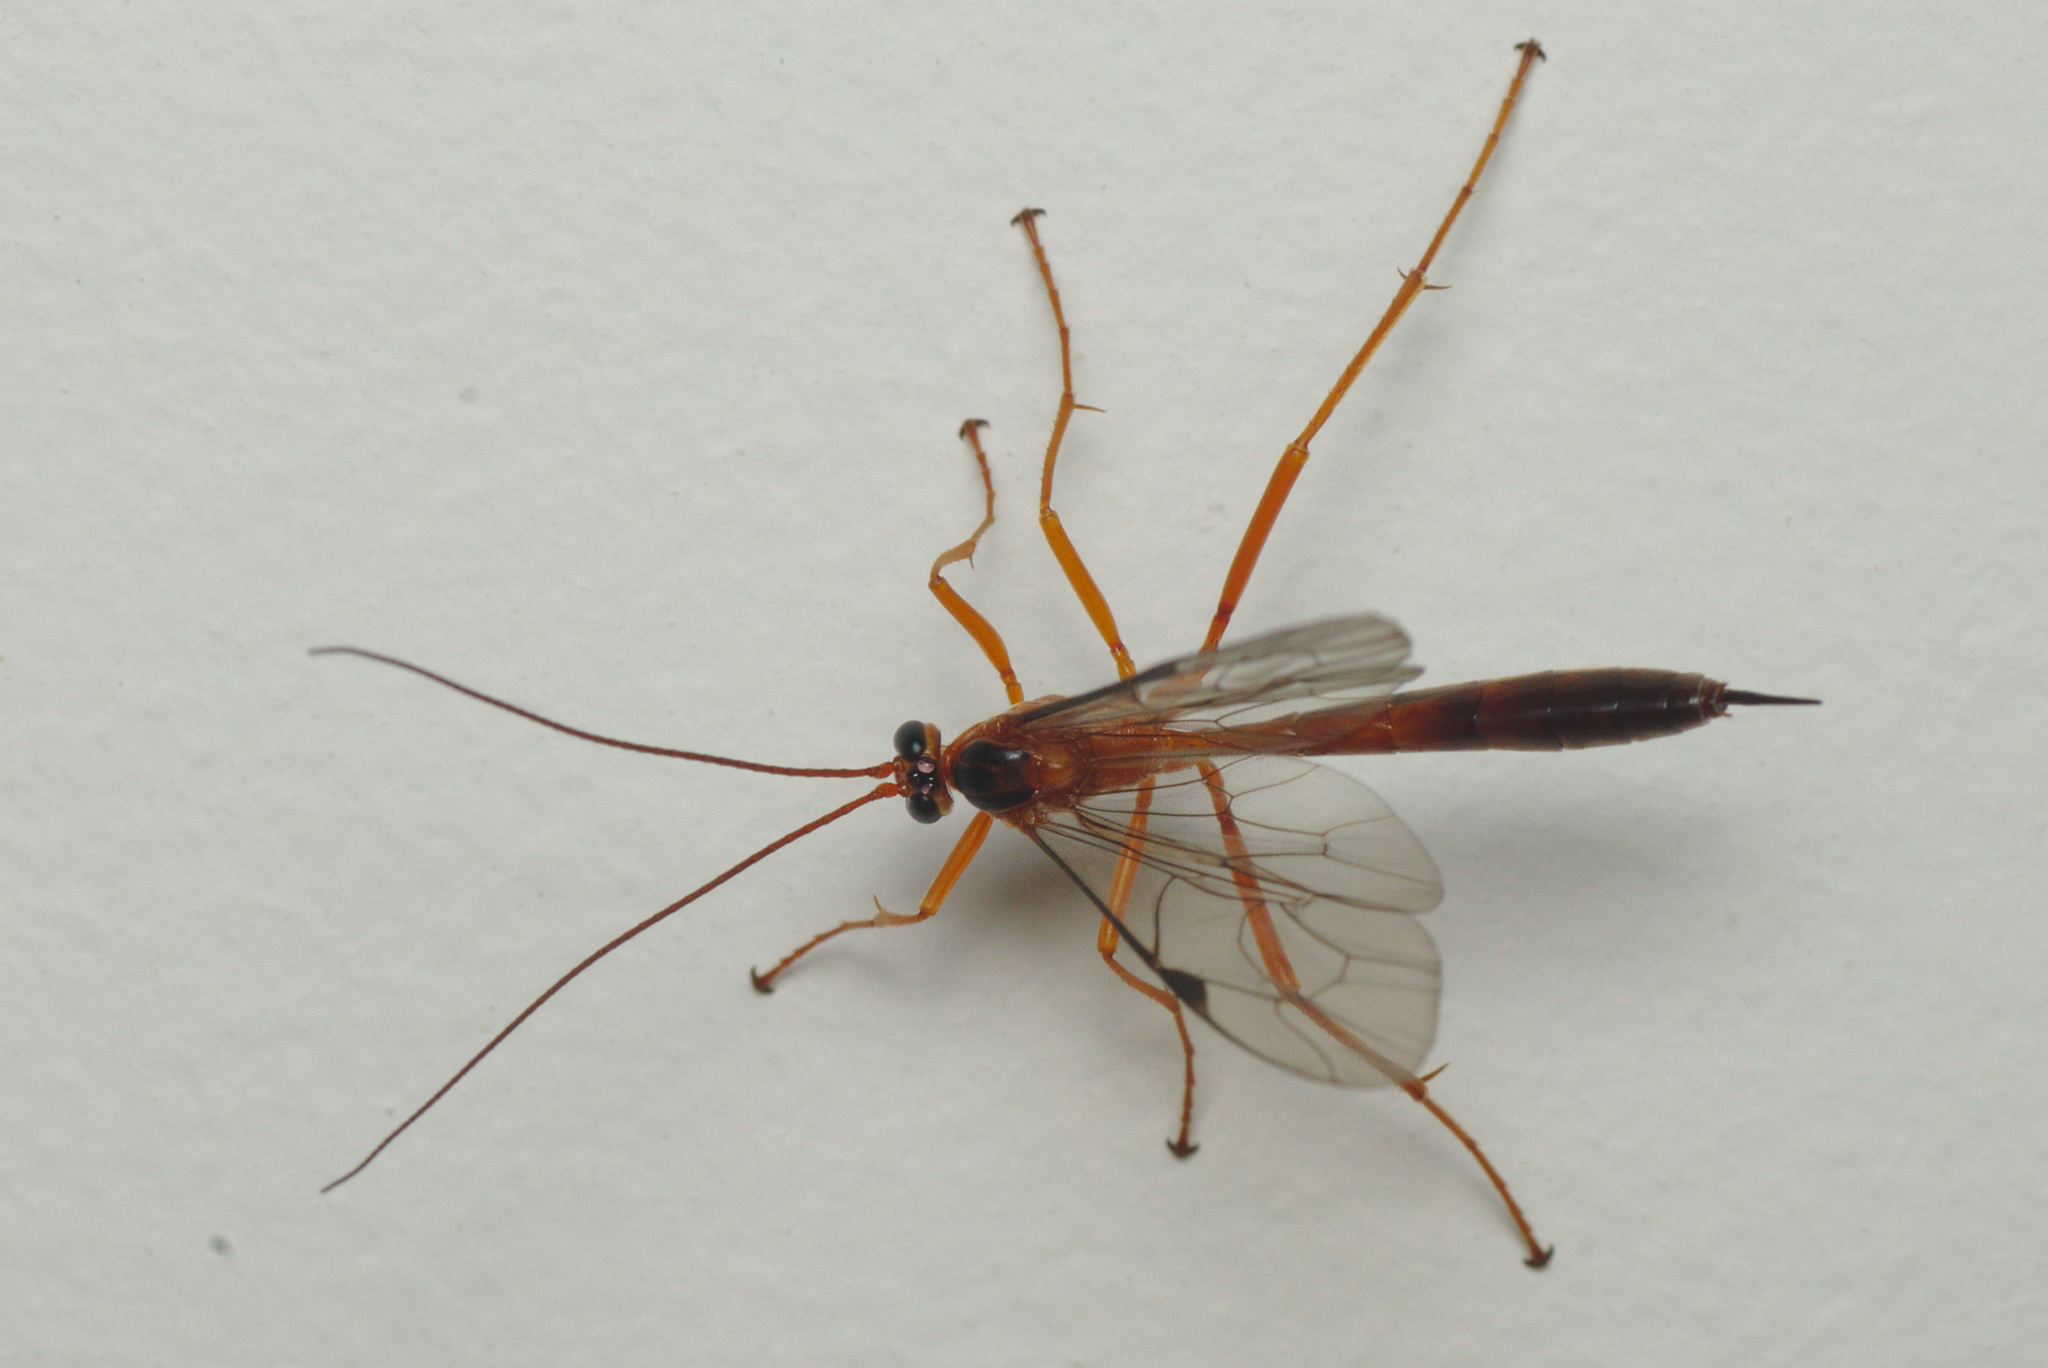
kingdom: Animalia
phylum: Arthropoda
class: Insecta
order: Hymenoptera
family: Ichneumonidae
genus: Netelia
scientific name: Netelia ephippiata
